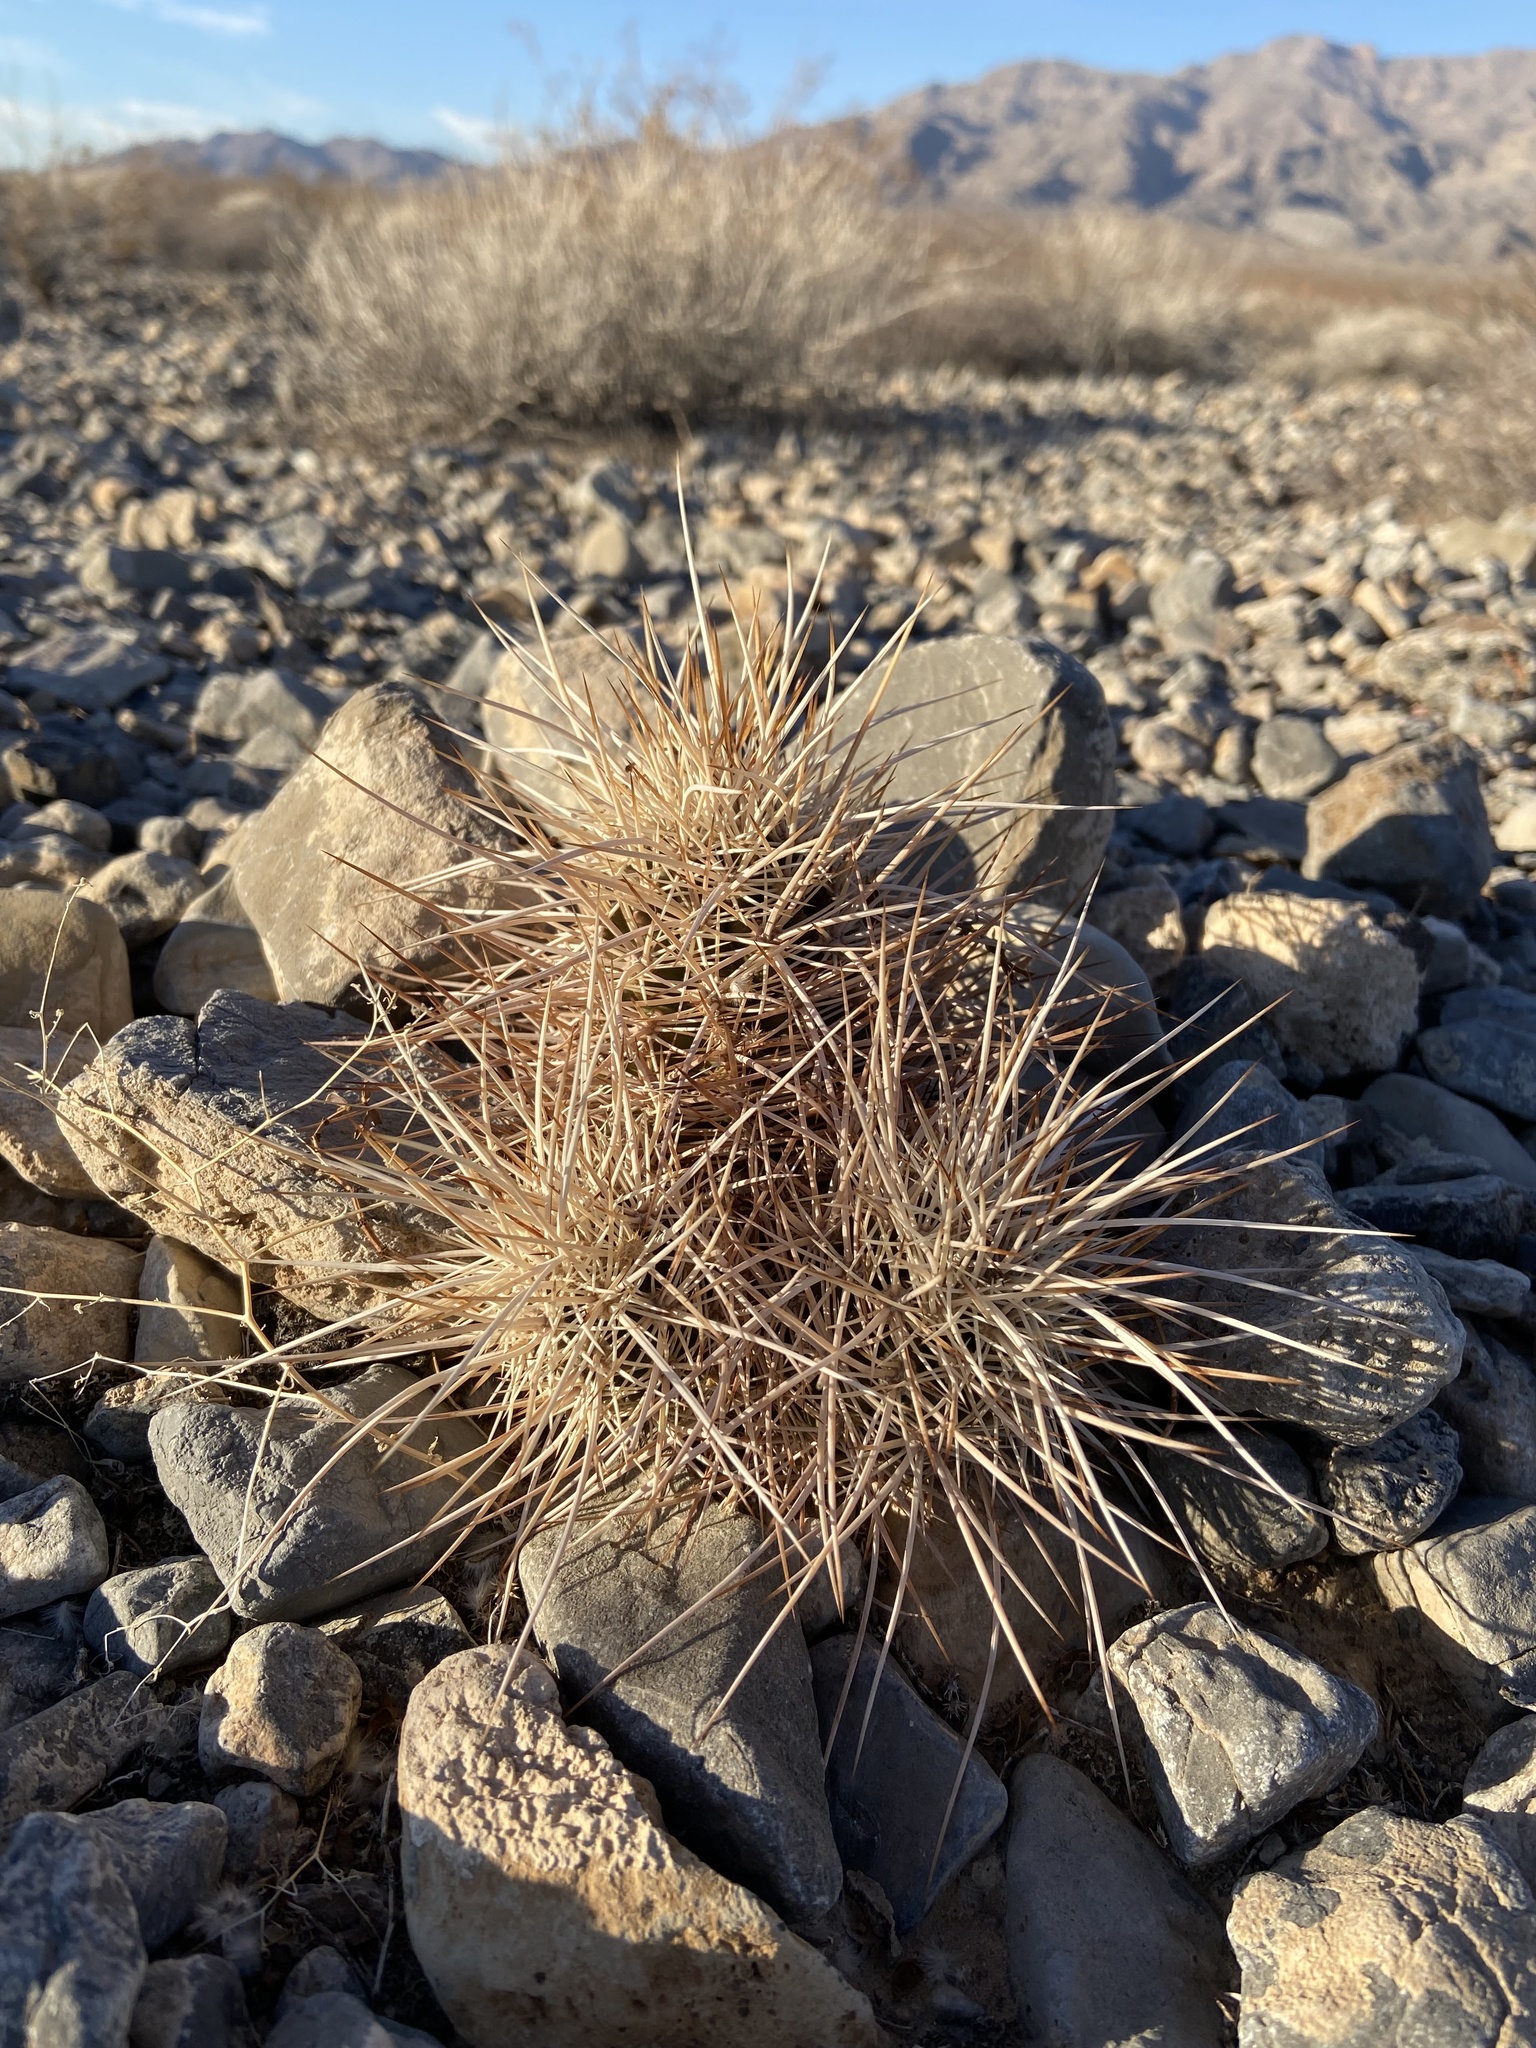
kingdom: Plantae
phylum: Tracheophyta
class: Magnoliopsida
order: Caryophyllales
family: Cactaceae
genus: Echinocereus
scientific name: Echinocereus engelmannii
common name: Engelmann's hedgehog cactus
